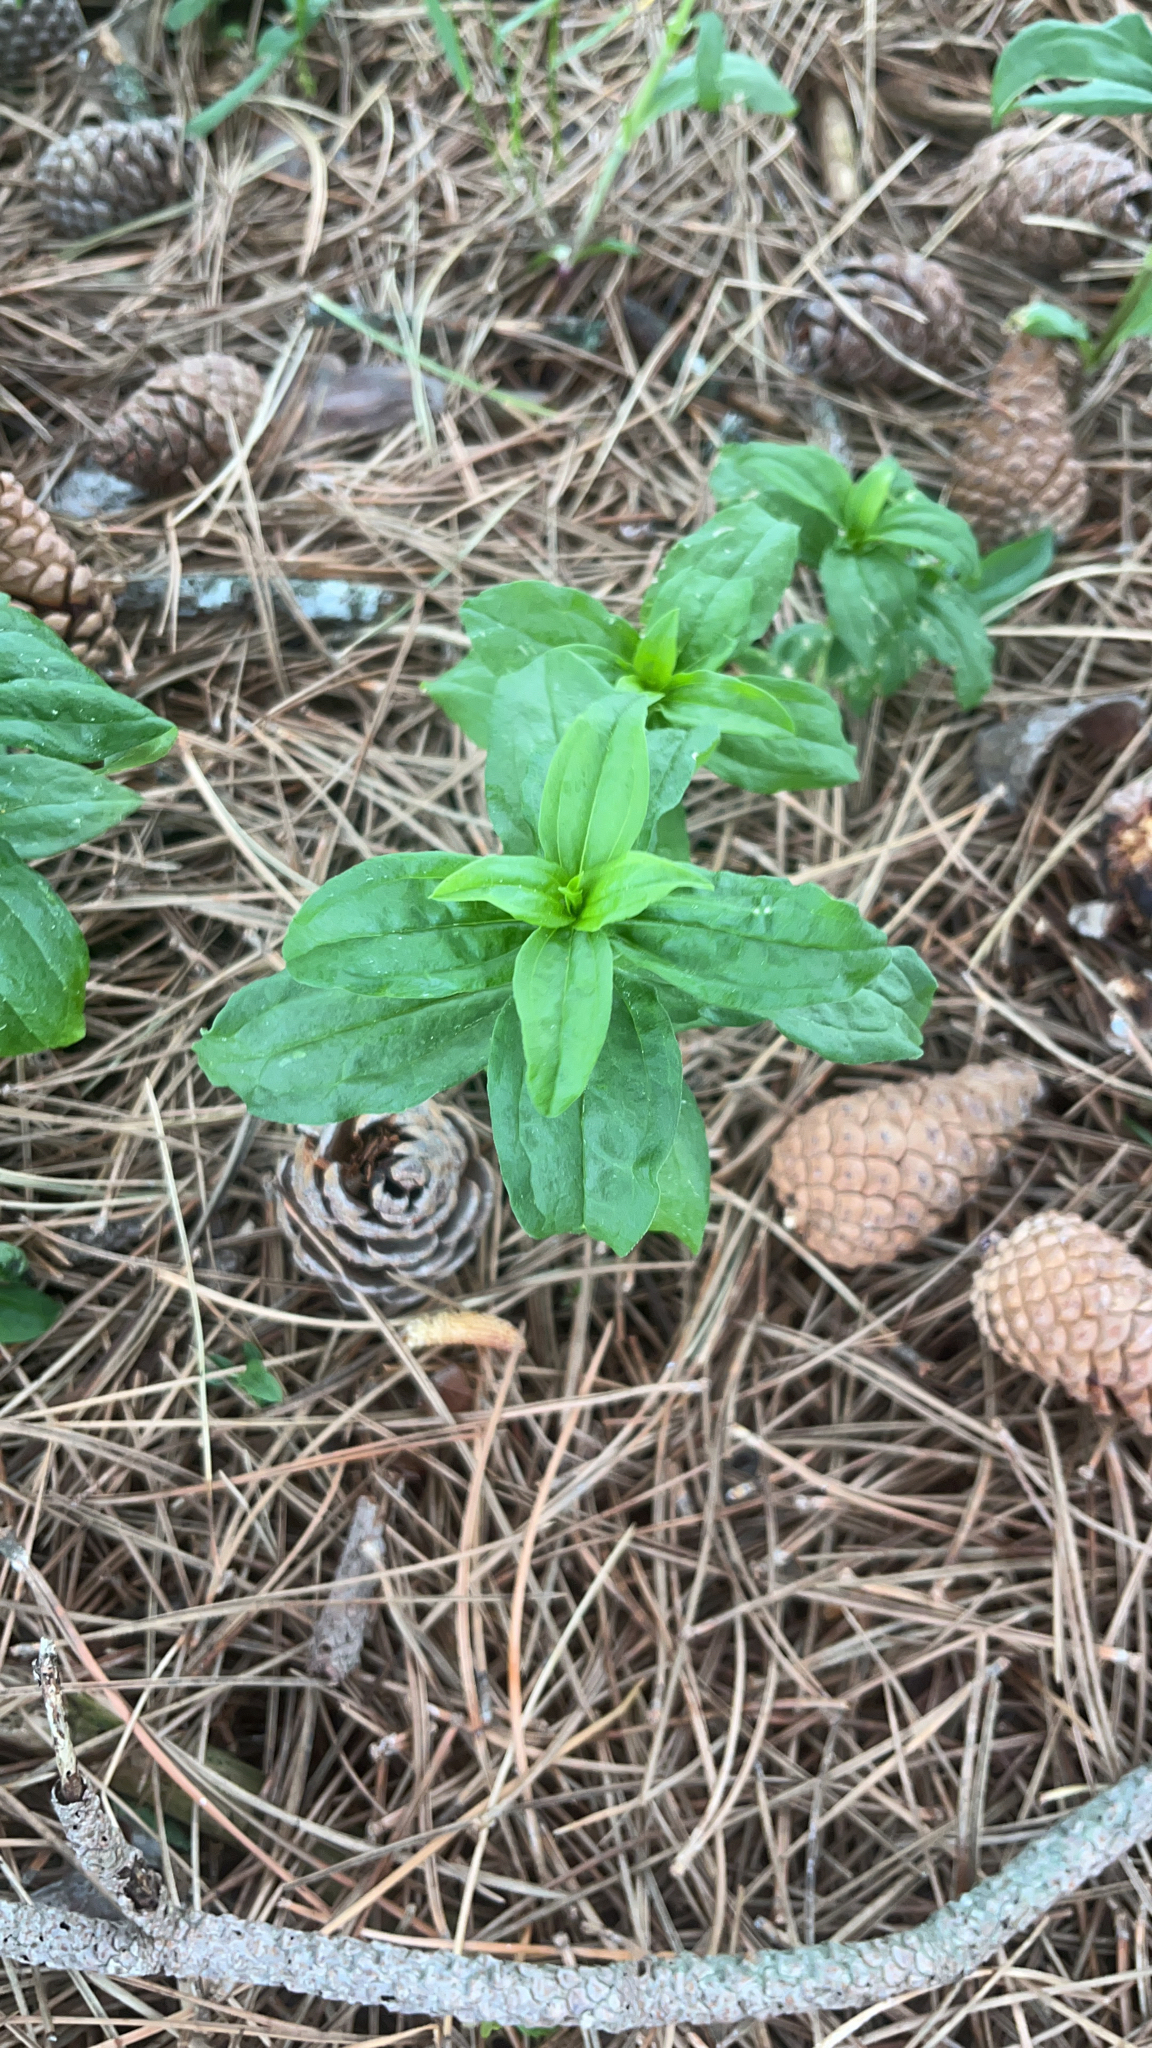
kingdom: Plantae
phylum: Tracheophyta
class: Magnoliopsida
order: Caryophyllales
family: Caryophyllaceae
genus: Saponaria
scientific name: Saponaria officinalis
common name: Soapwort
